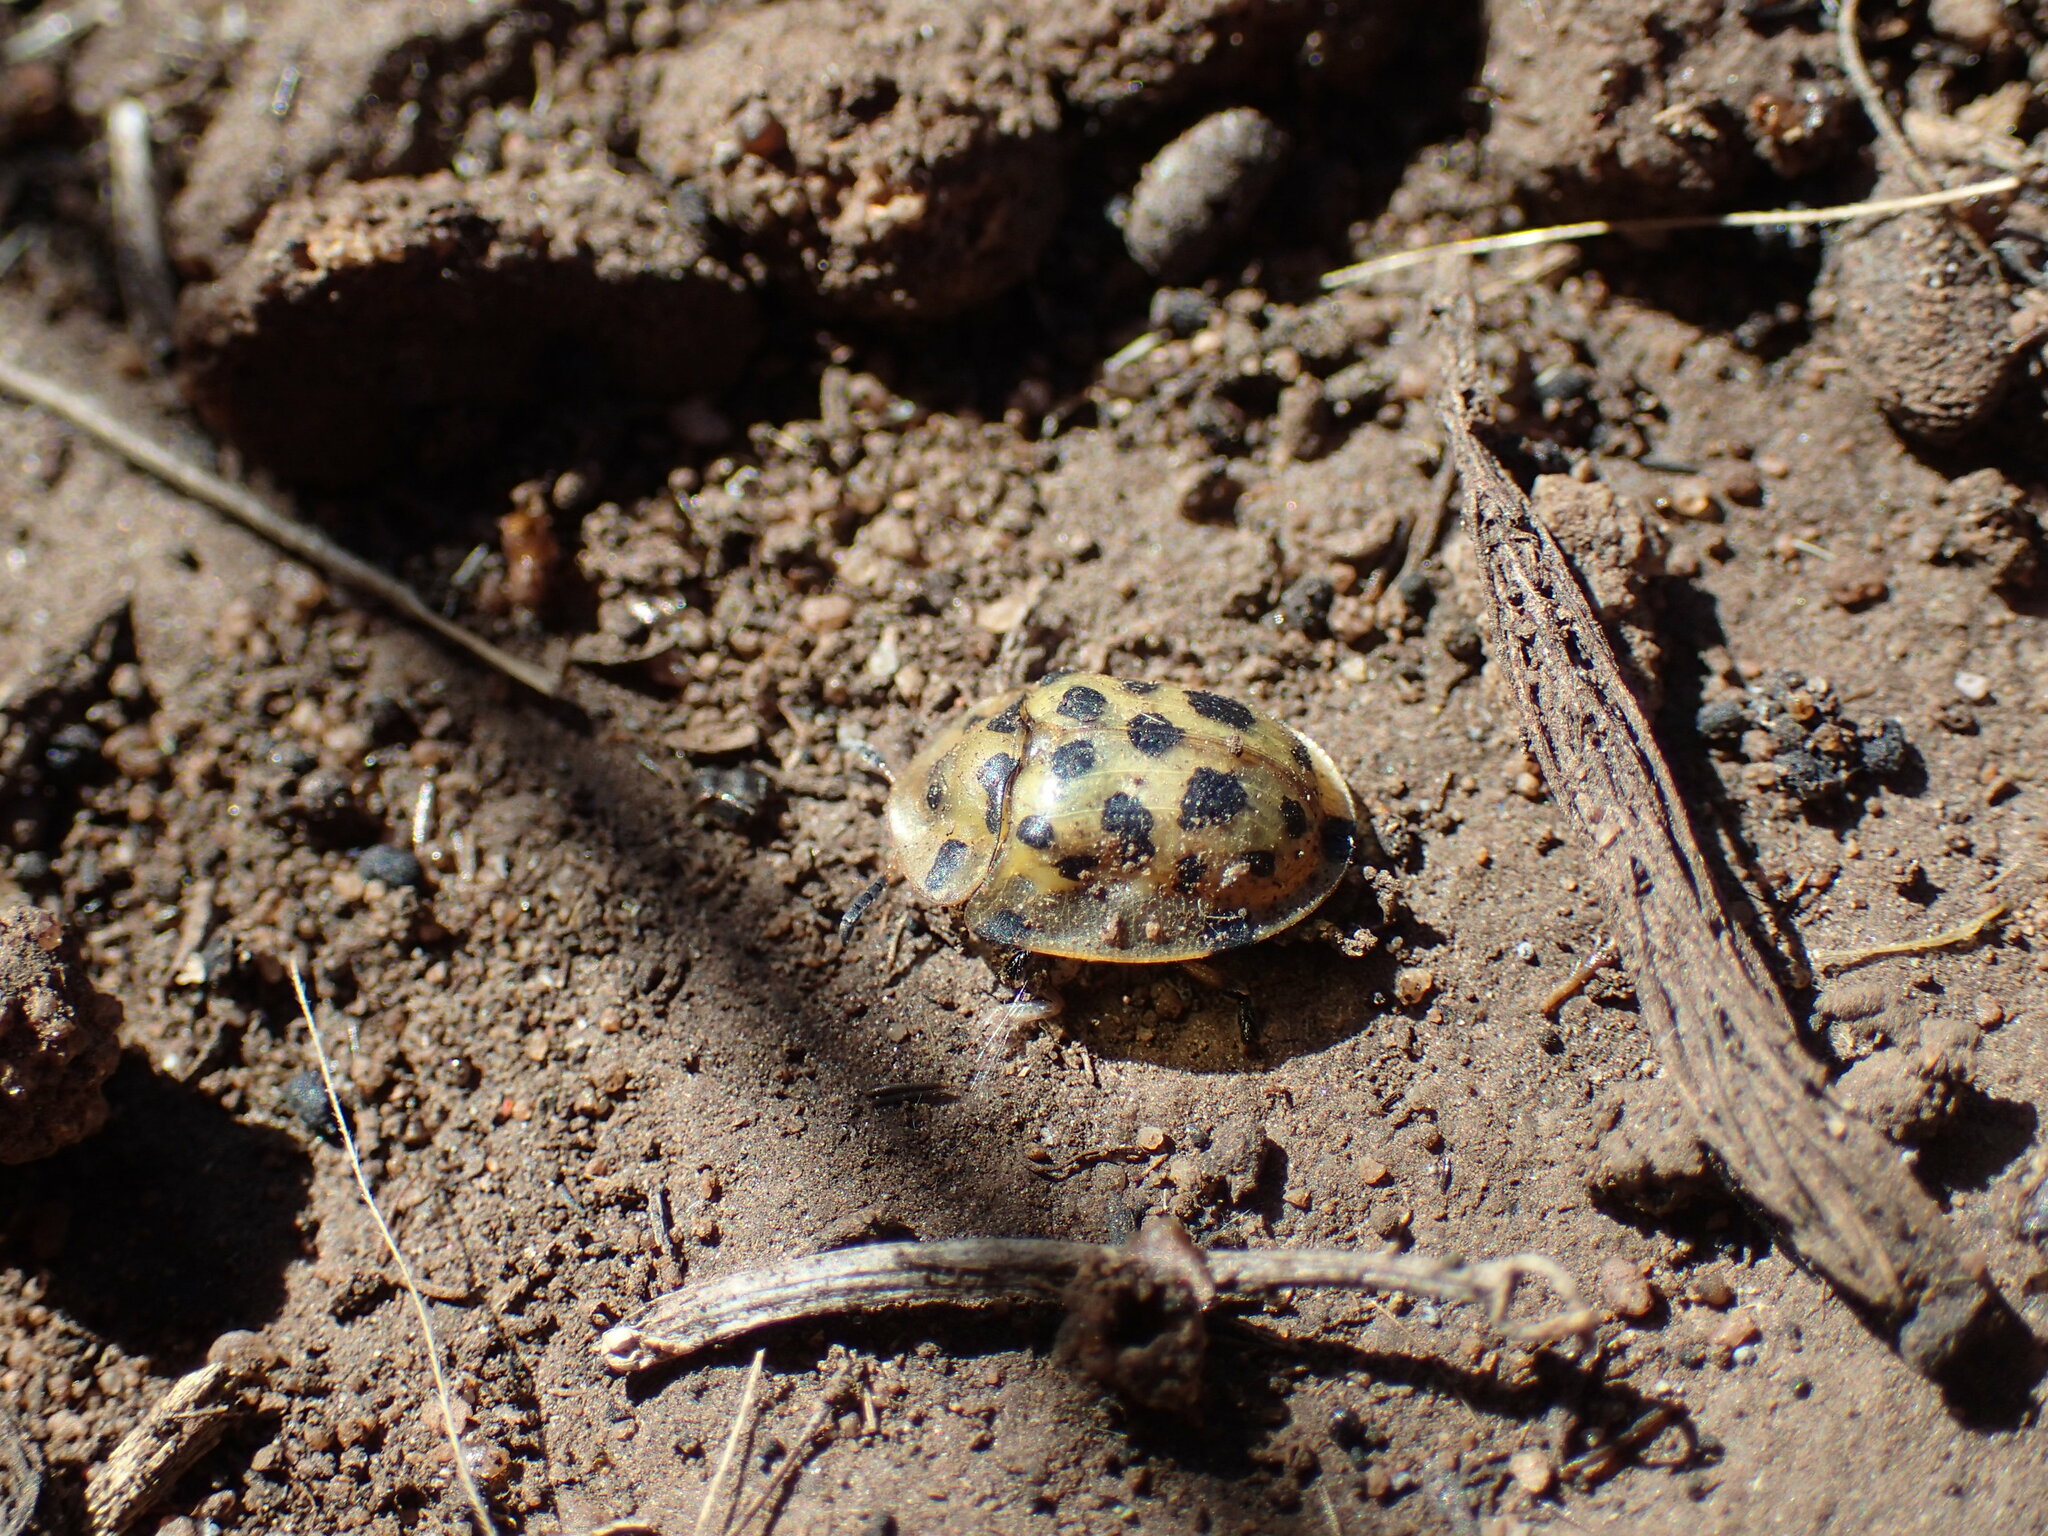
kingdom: Animalia
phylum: Arthropoda
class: Insecta
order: Coleoptera
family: Chrysomelidae
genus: Aethiopocassis
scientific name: Aethiopocassis vigintimaculata
